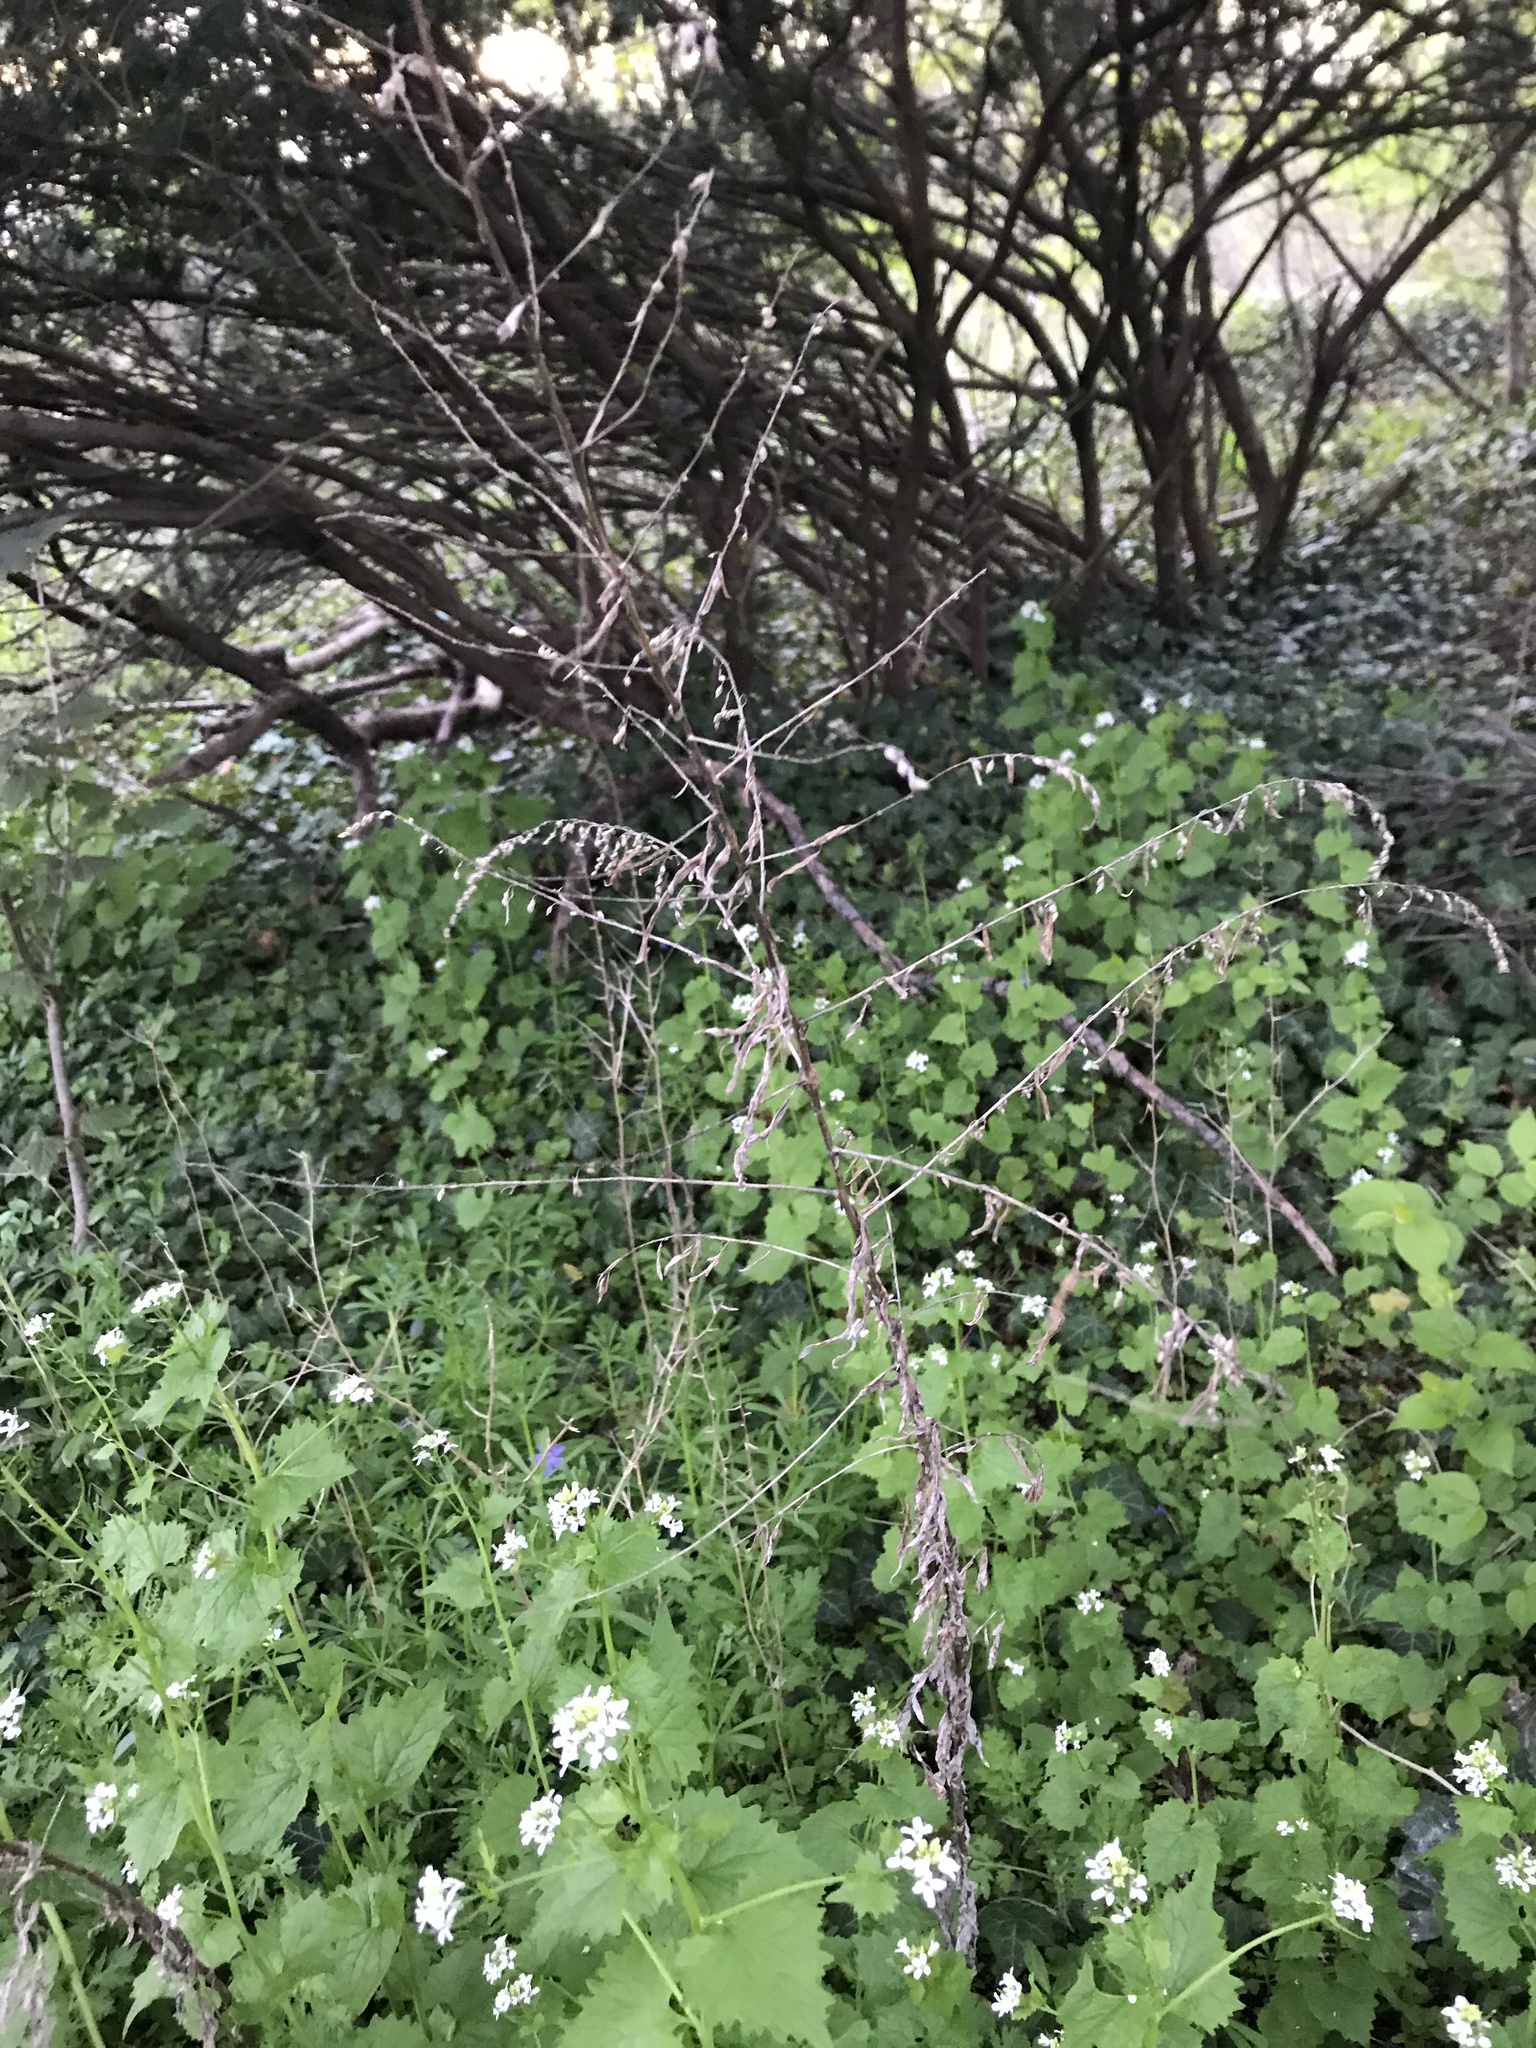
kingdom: Plantae
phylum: Tracheophyta
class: Magnoliopsida
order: Asterales
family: Asteraceae
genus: Artemisia
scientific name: Artemisia vulgaris
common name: Mugwort
